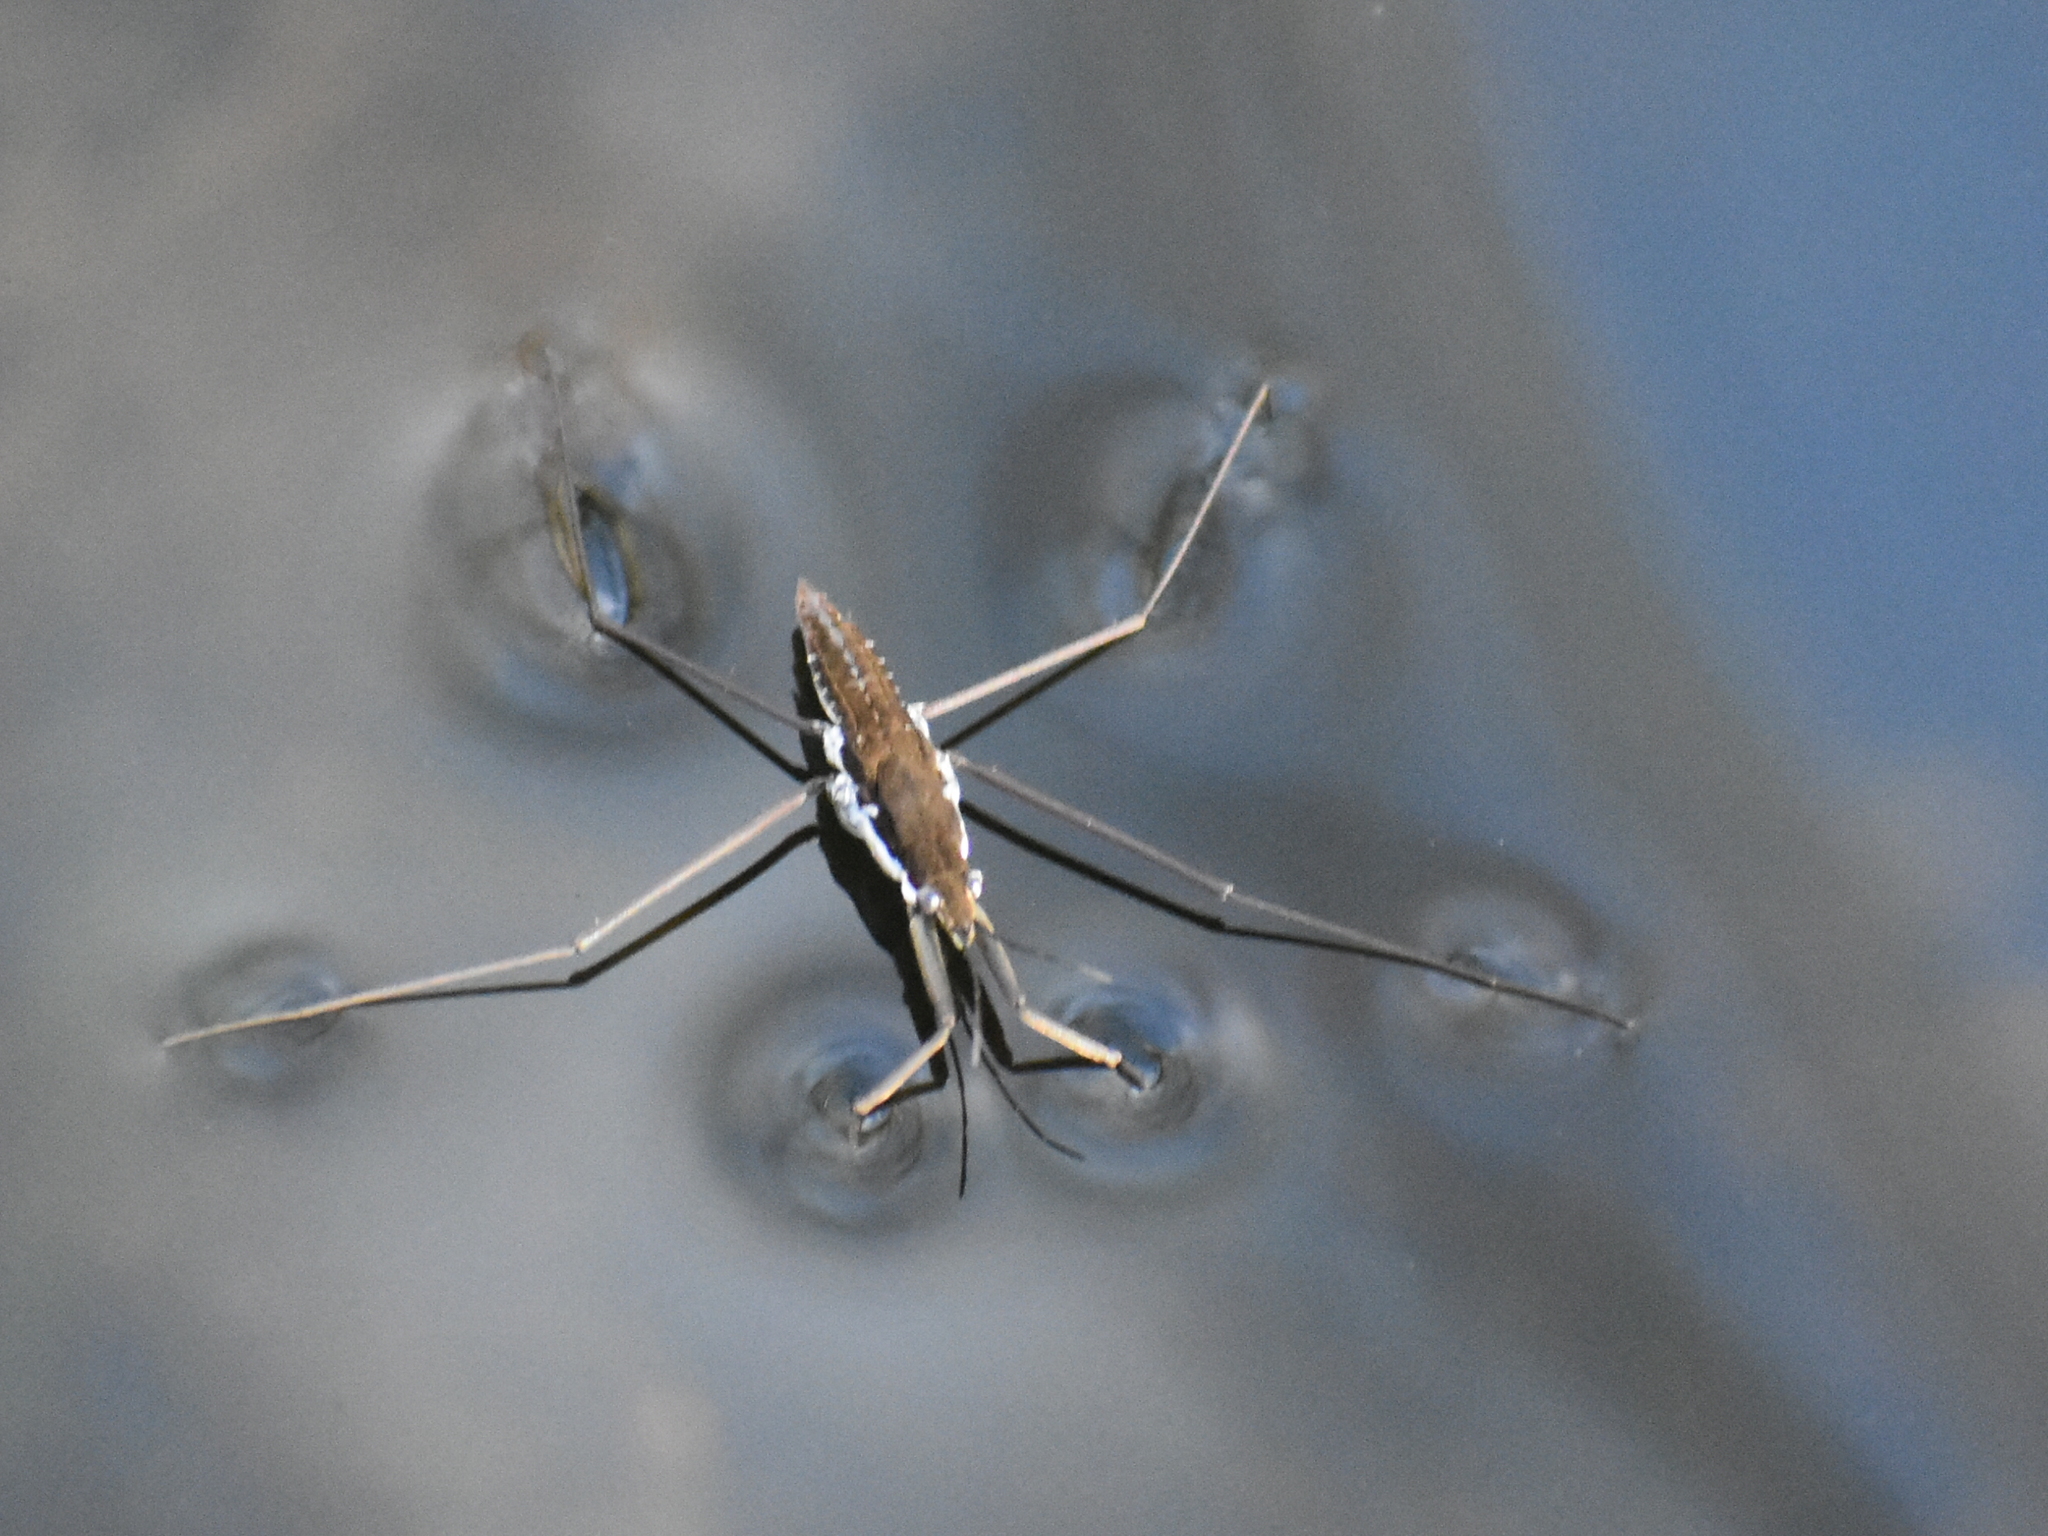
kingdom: Animalia
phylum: Arthropoda
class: Insecta
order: Hemiptera
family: Gerridae
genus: Aquarius
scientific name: Aquarius remigis
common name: Common water strider
